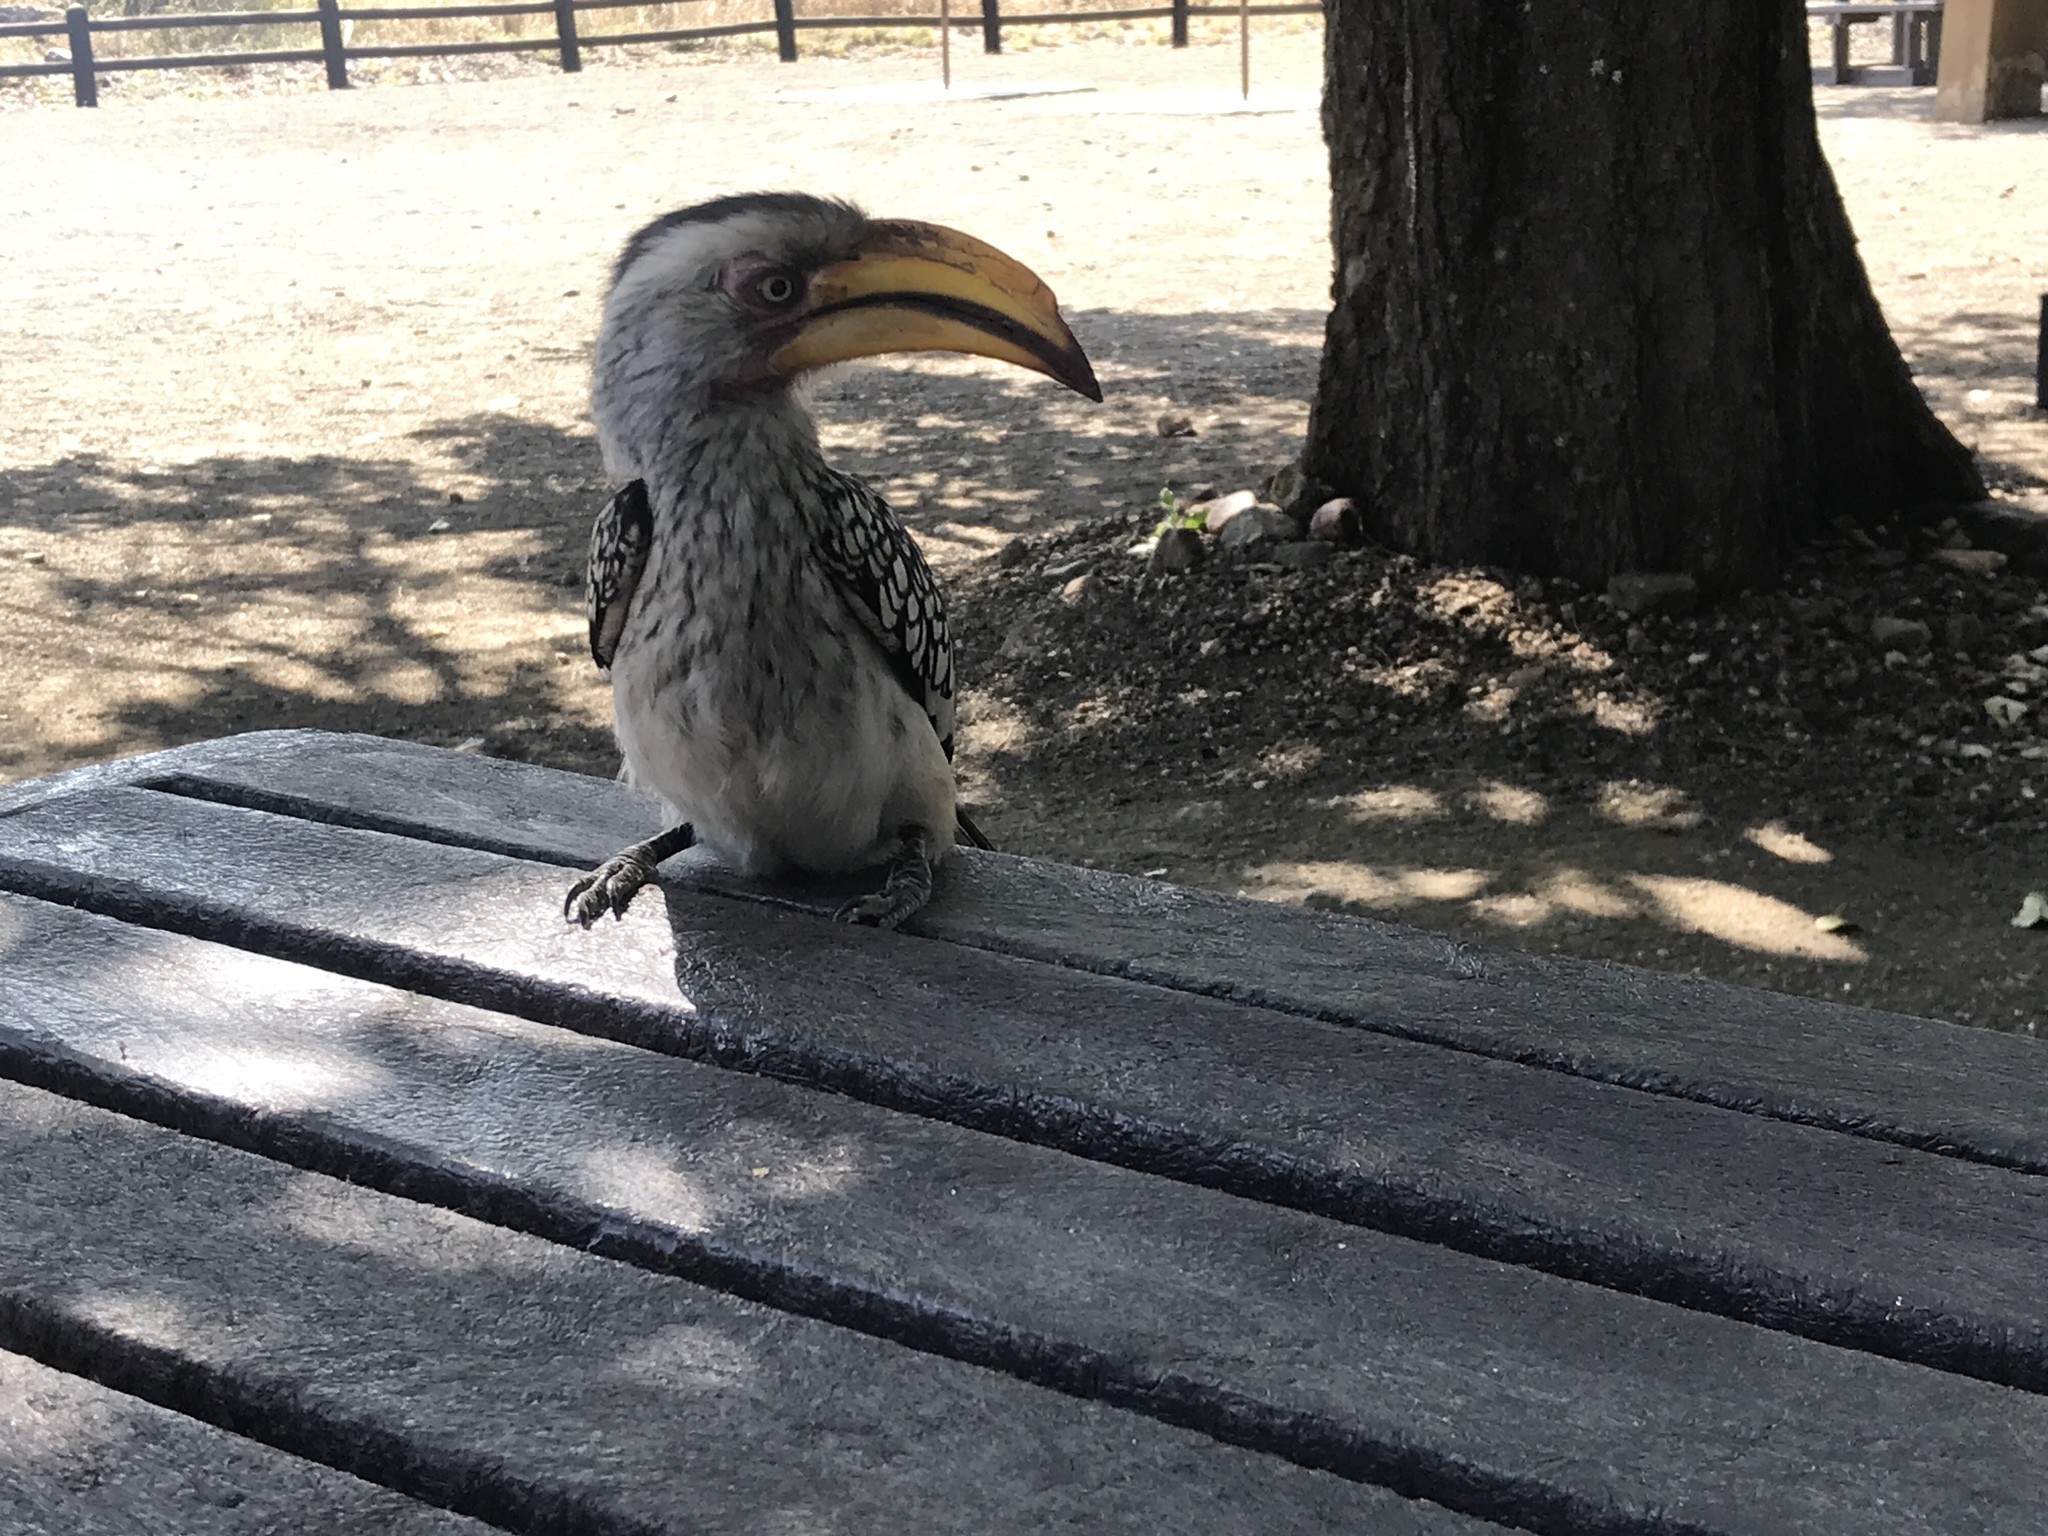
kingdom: Animalia
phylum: Chordata
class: Aves
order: Bucerotiformes
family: Bucerotidae
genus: Tockus
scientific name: Tockus leucomelas
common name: Southern yellow-billed hornbill
